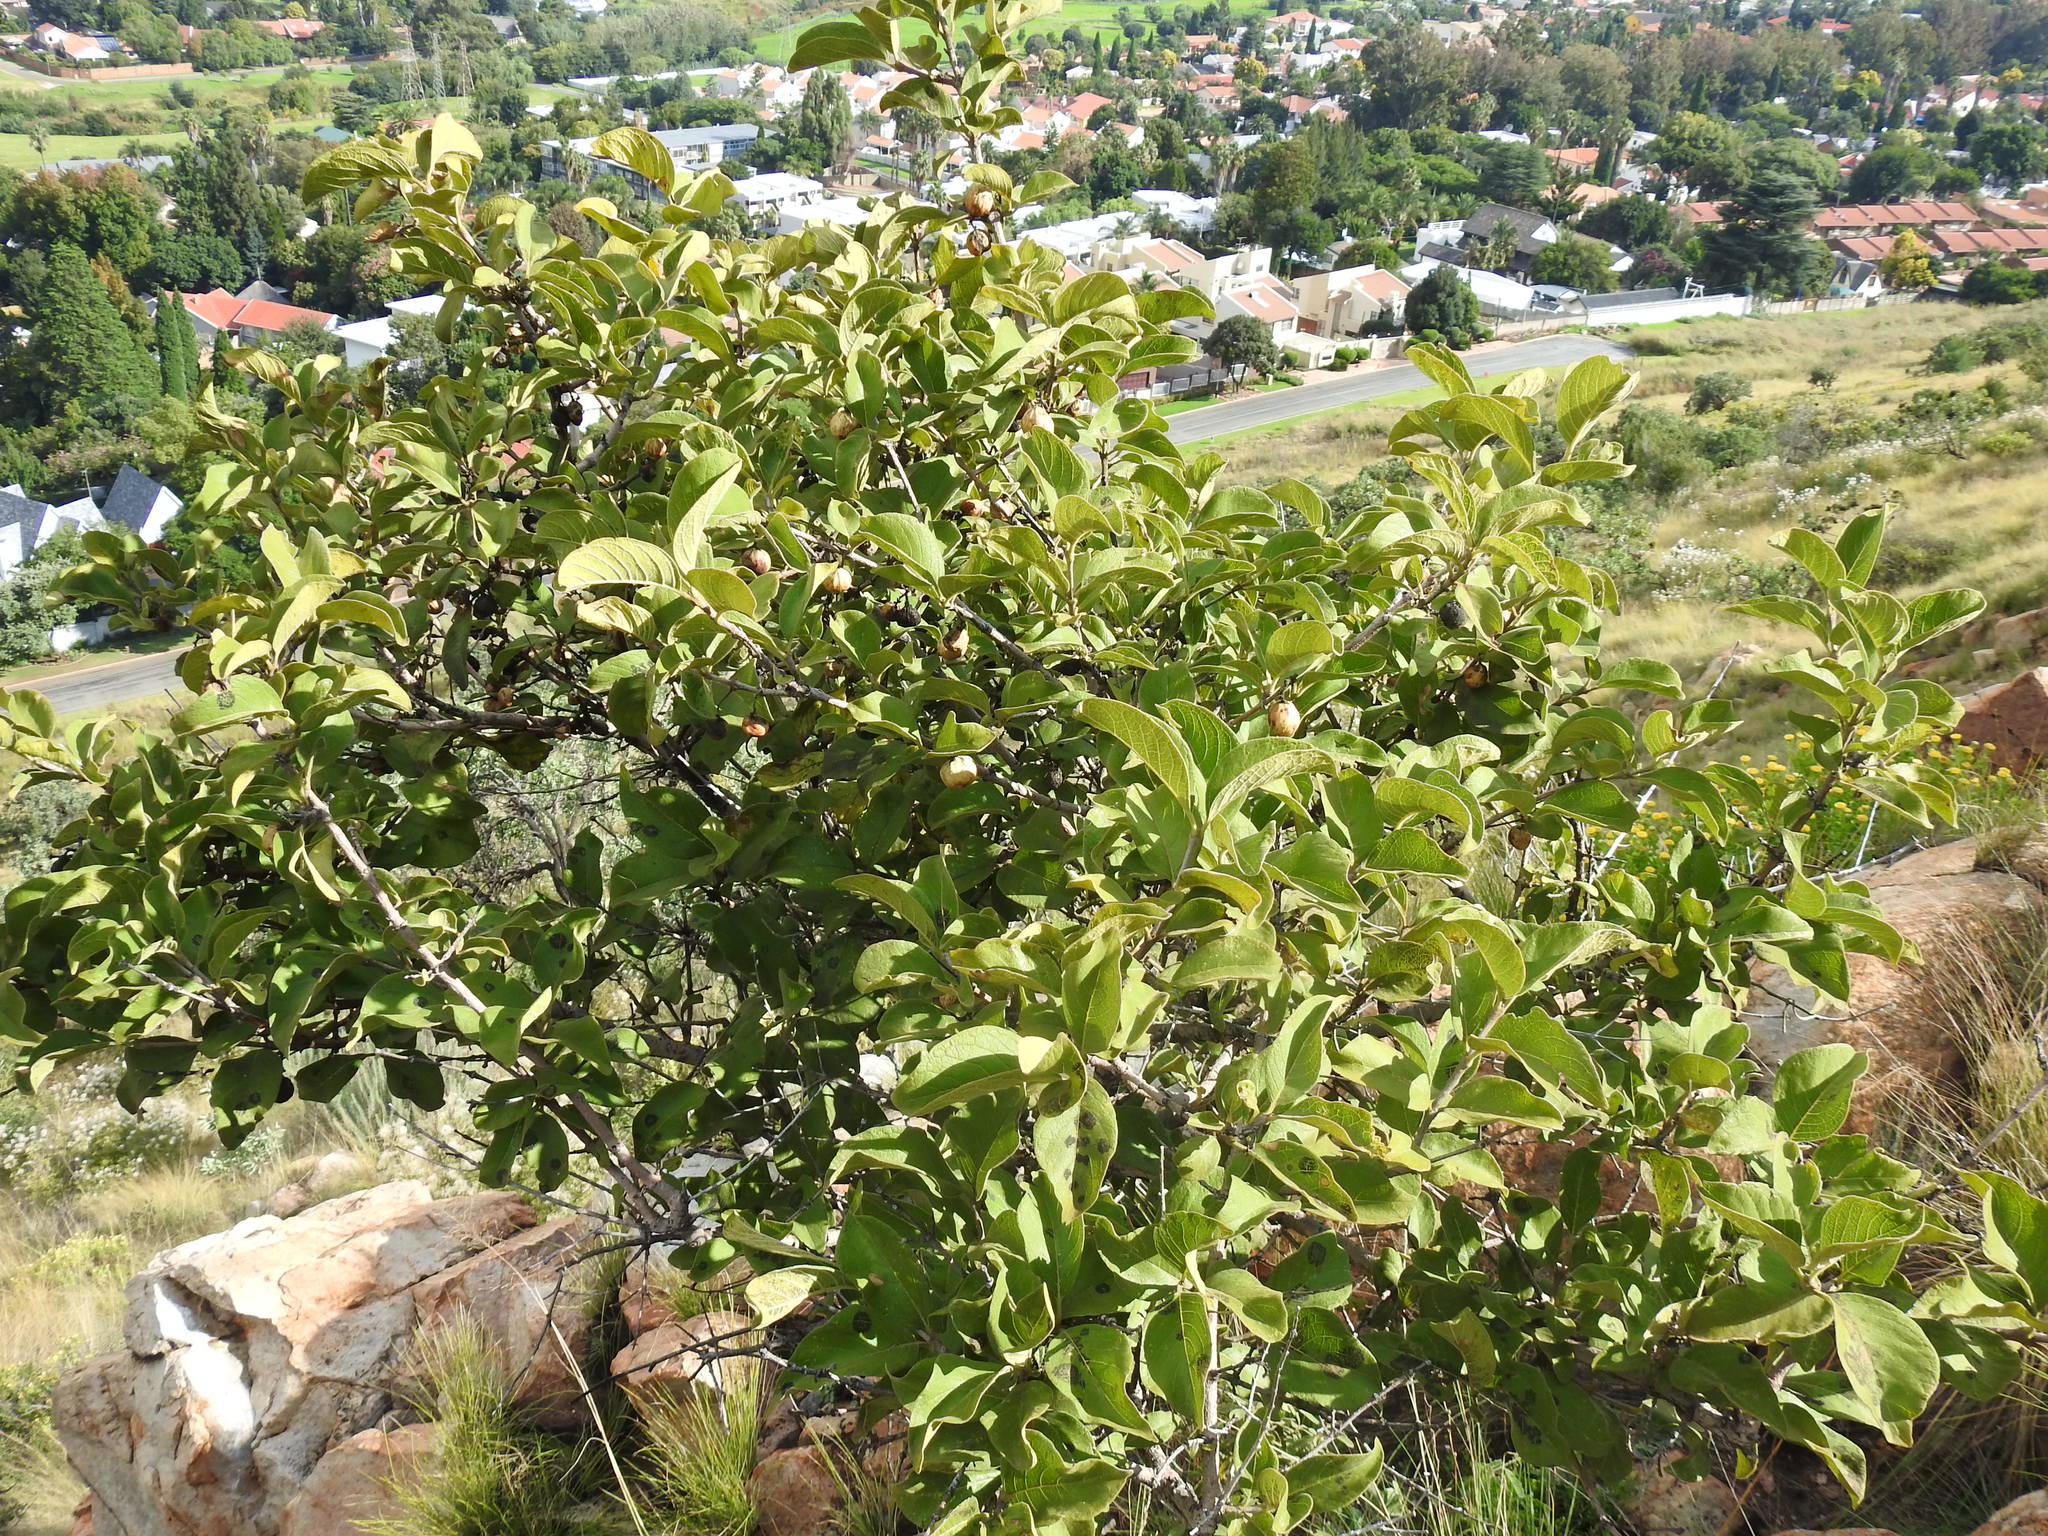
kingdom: Plantae
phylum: Tracheophyta
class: Magnoliopsida
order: Gentianales
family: Rubiaceae
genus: Vangueria
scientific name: Vangueria infausta
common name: Medlar
